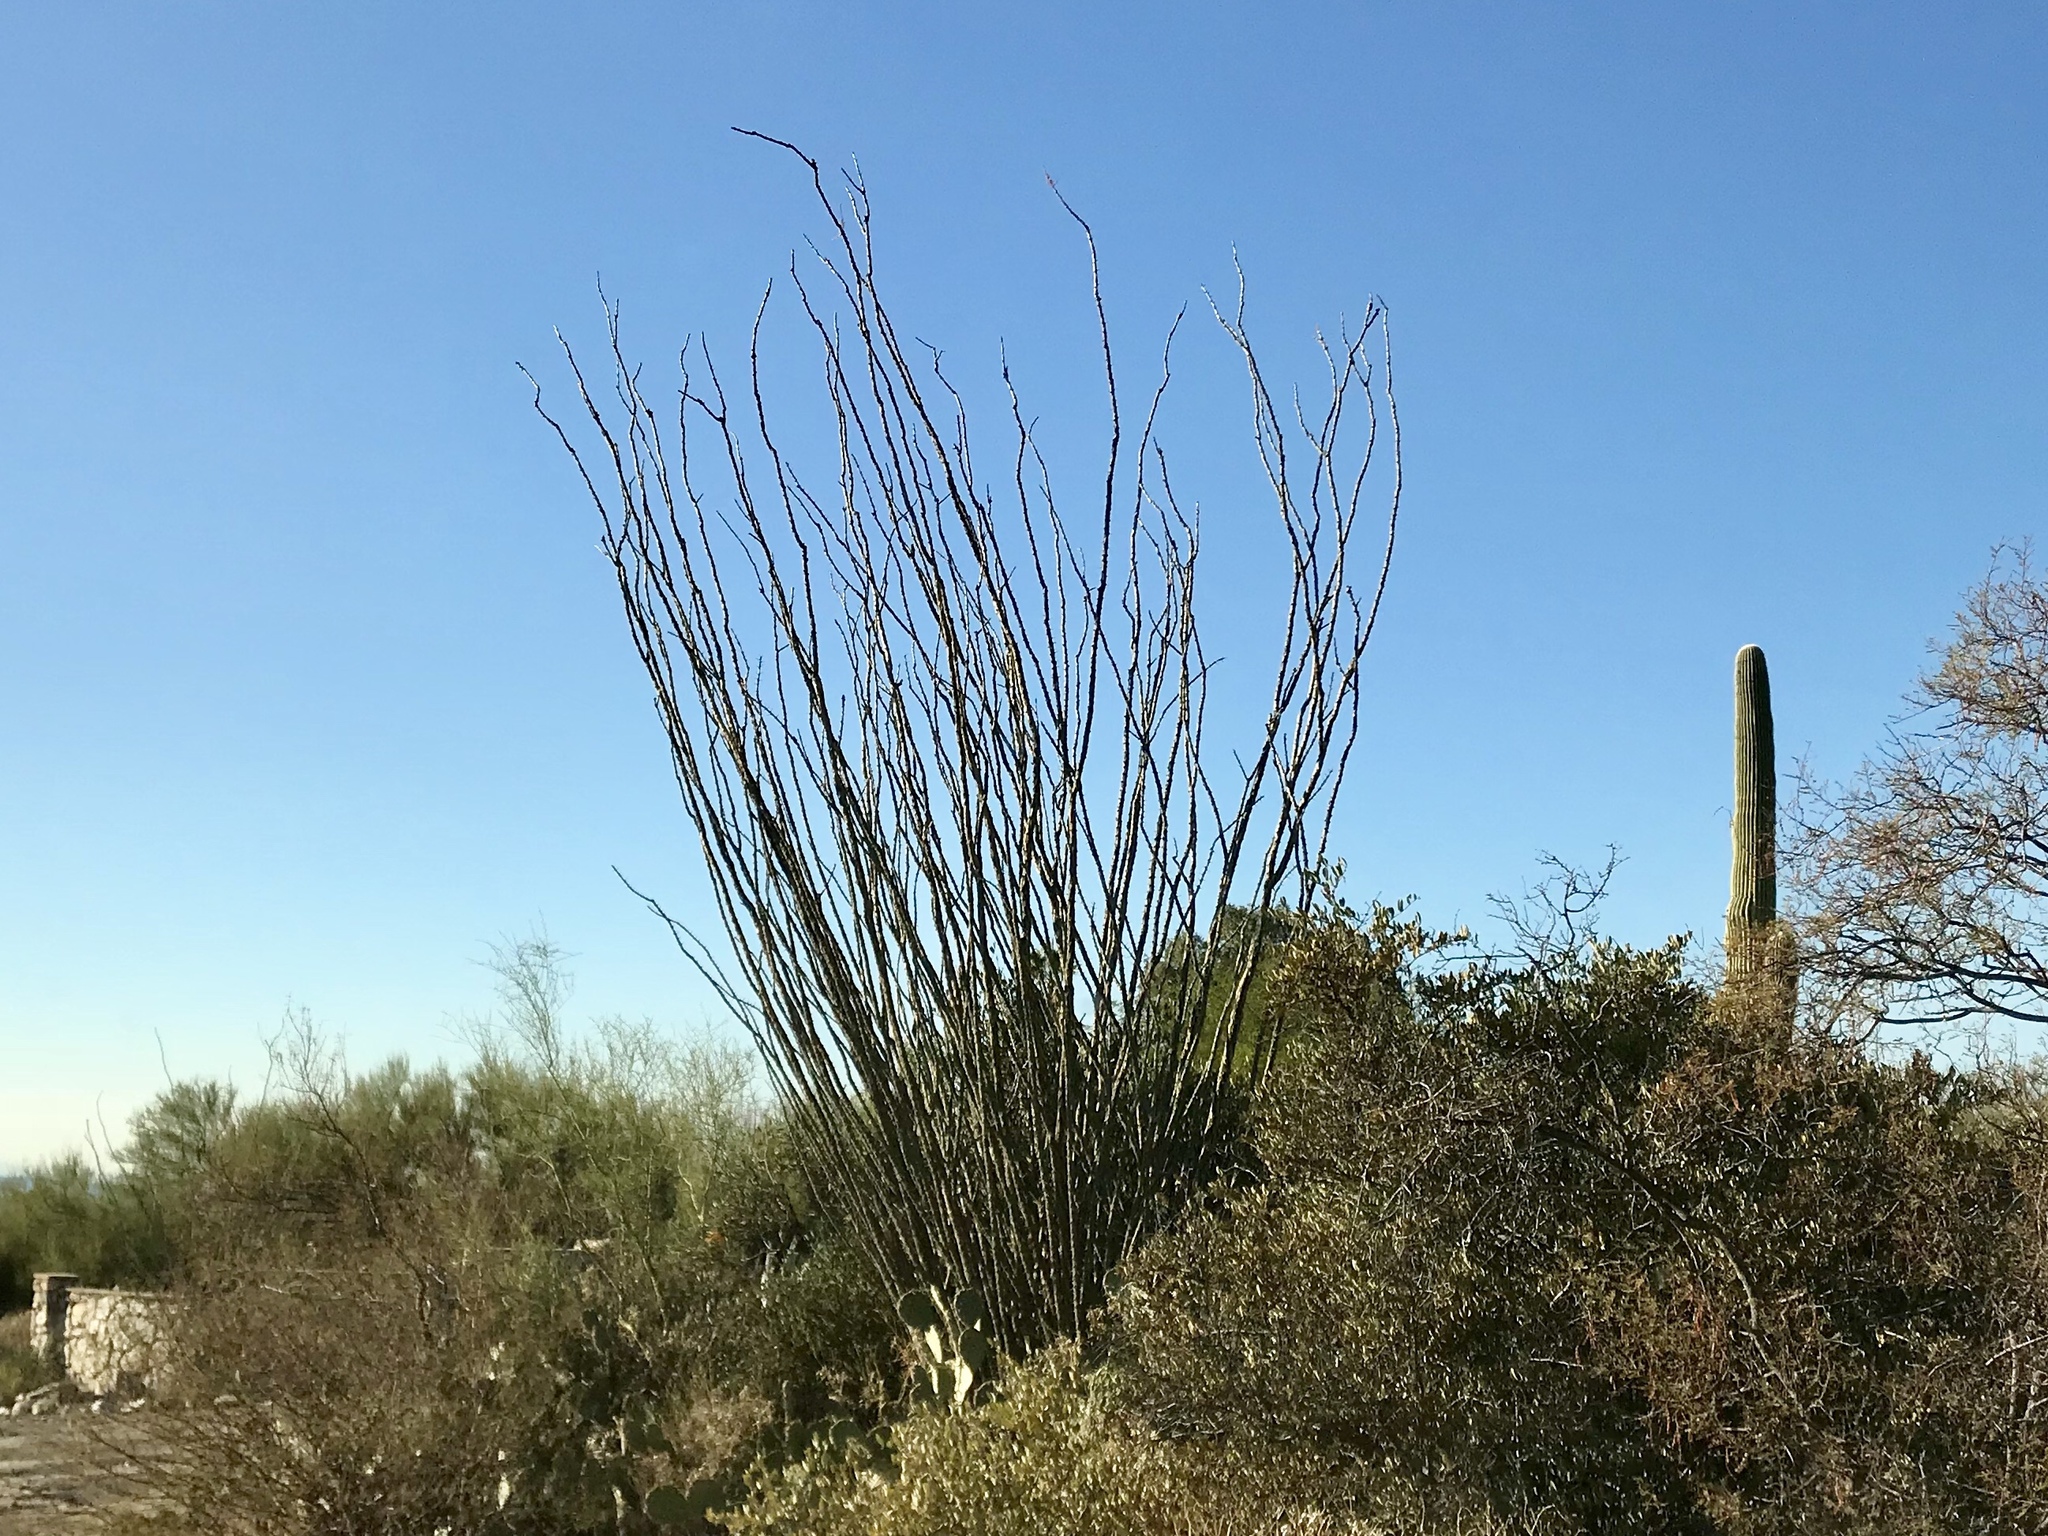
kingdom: Plantae
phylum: Tracheophyta
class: Magnoliopsida
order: Ericales
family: Fouquieriaceae
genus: Fouquieria
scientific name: Fouquieria splendens
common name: Vine-cactus
